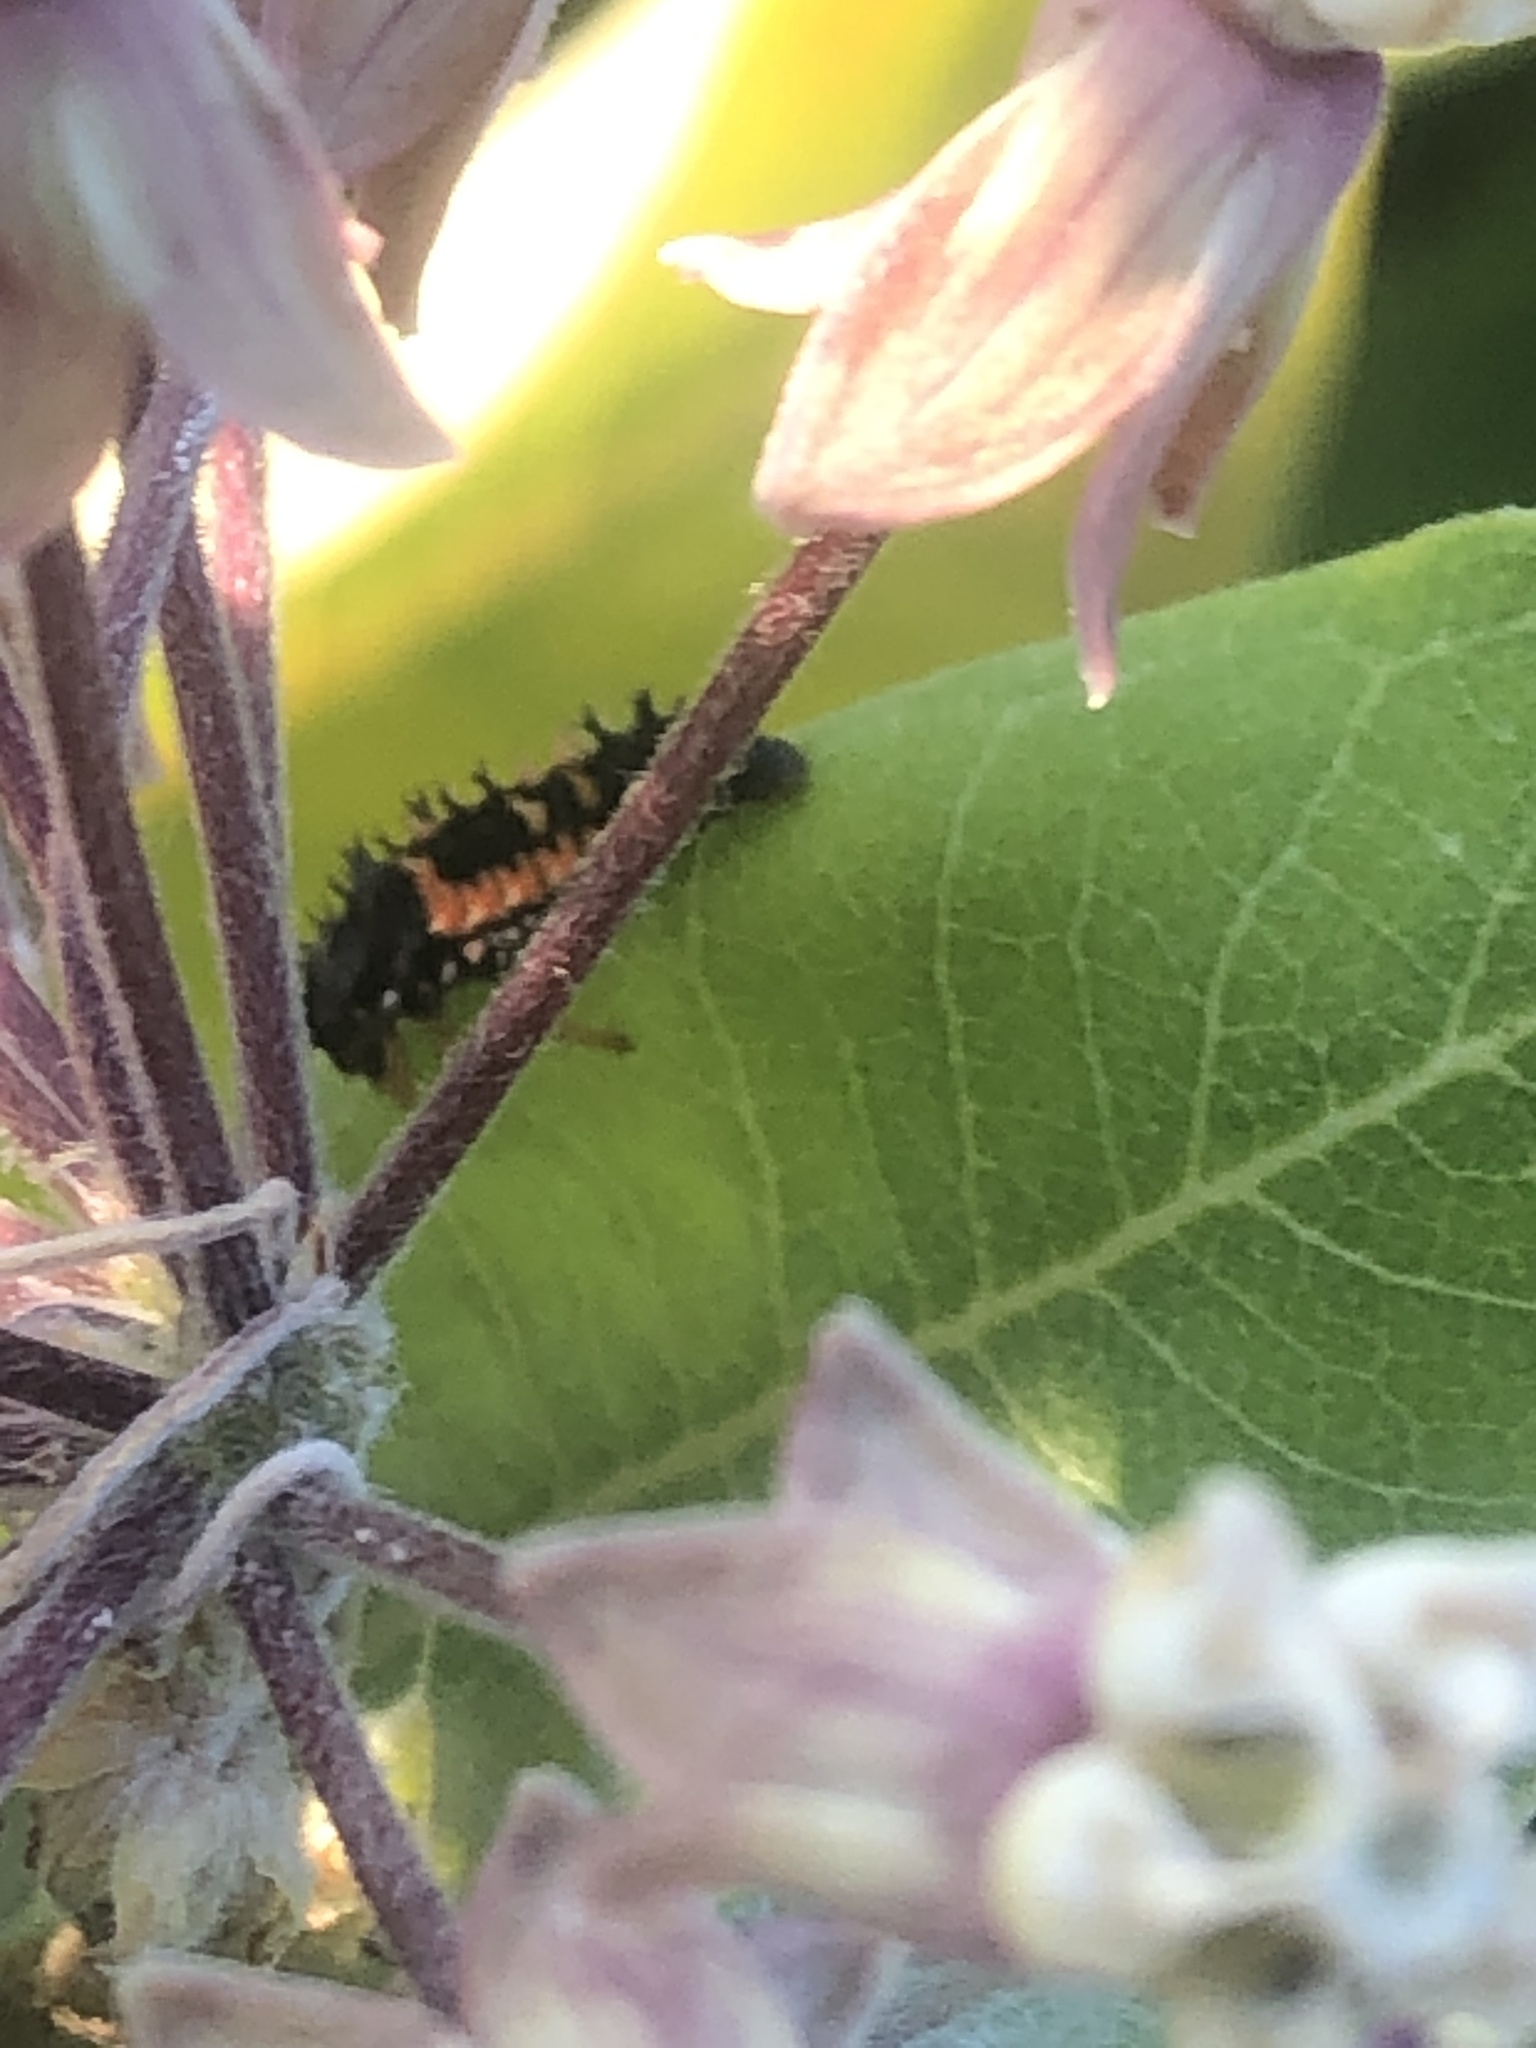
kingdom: Animalia
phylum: Arthropoda
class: Insecta
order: Coleoptera
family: Coccinellidae
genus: Harmonia
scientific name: Harmonia axyridis
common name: Harlequin ladybird
